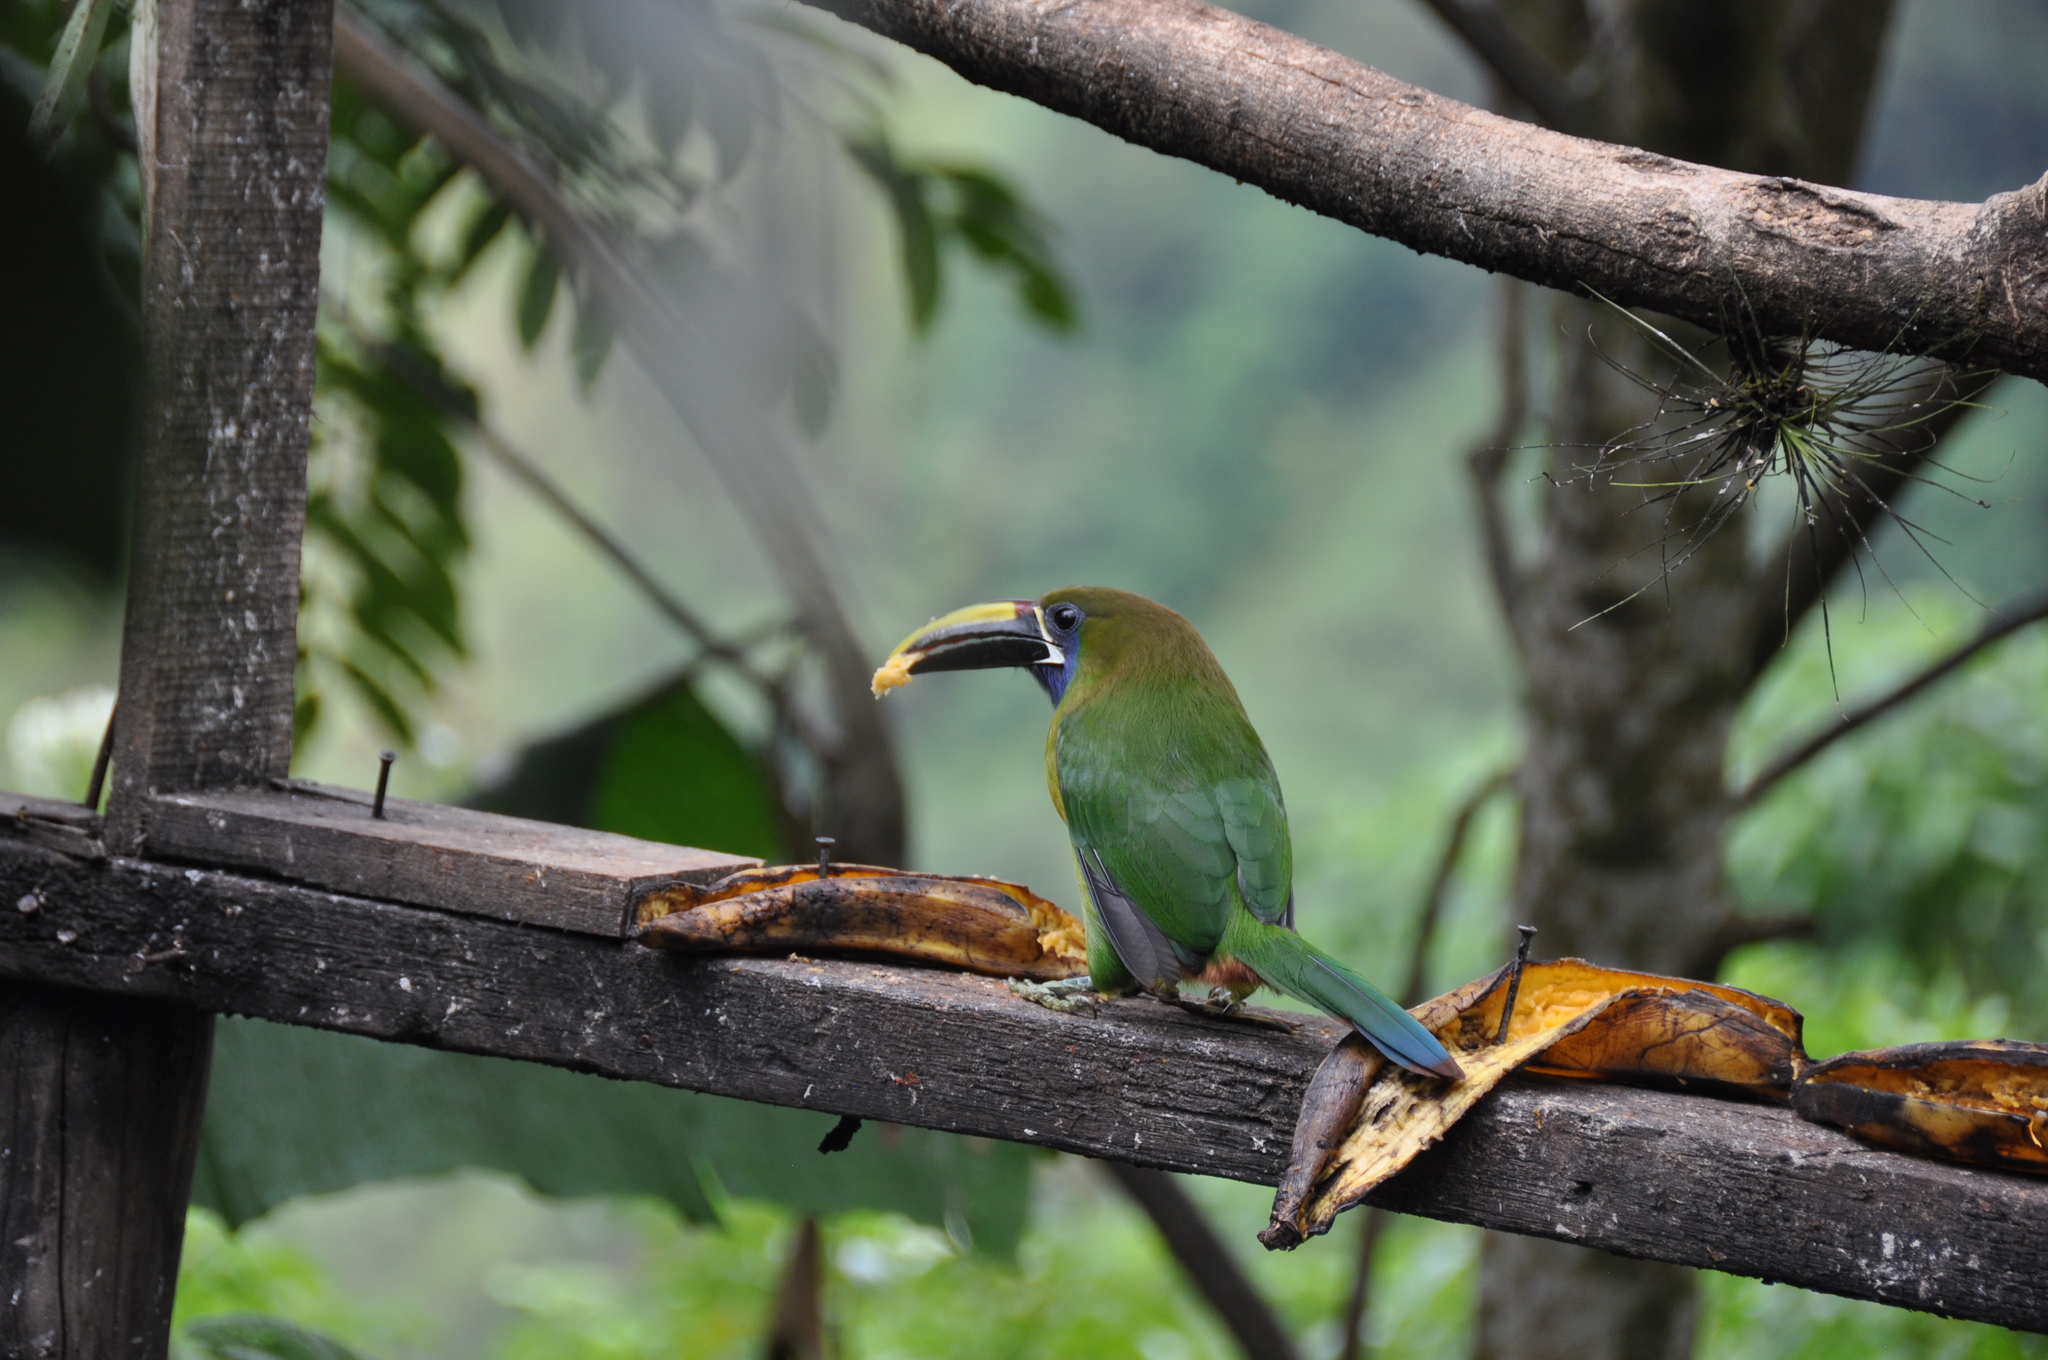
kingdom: Animalia
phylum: Chordata
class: Aves
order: Piciformes
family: Ramphastidae
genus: Aulacorhynchus
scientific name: Aulacorhynchus prasinus
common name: Emerald toucanet
